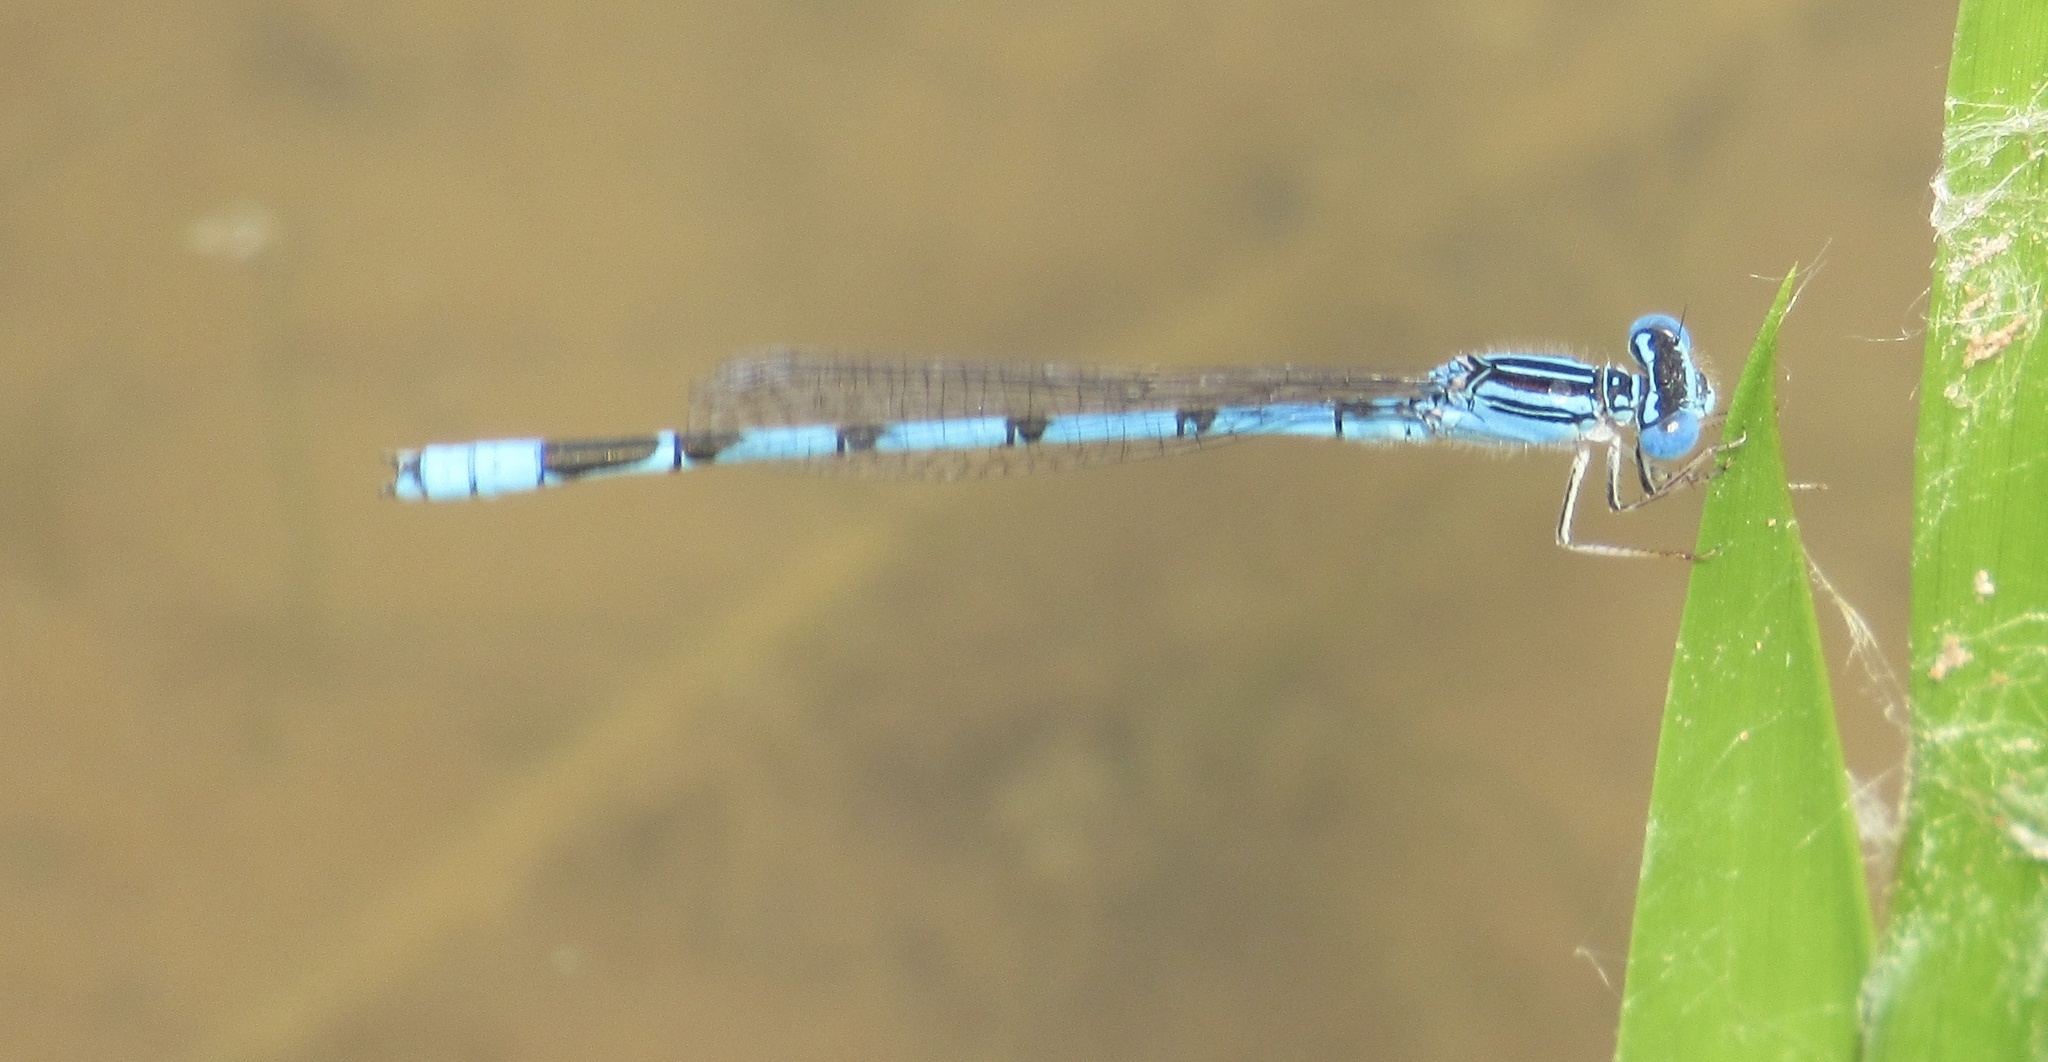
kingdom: Animalia
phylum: Arthropoda
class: Insecta
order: Odonata
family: Coenagrionidae
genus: Enallagma
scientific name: Enallagma basidens
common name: Double-striped bluet
